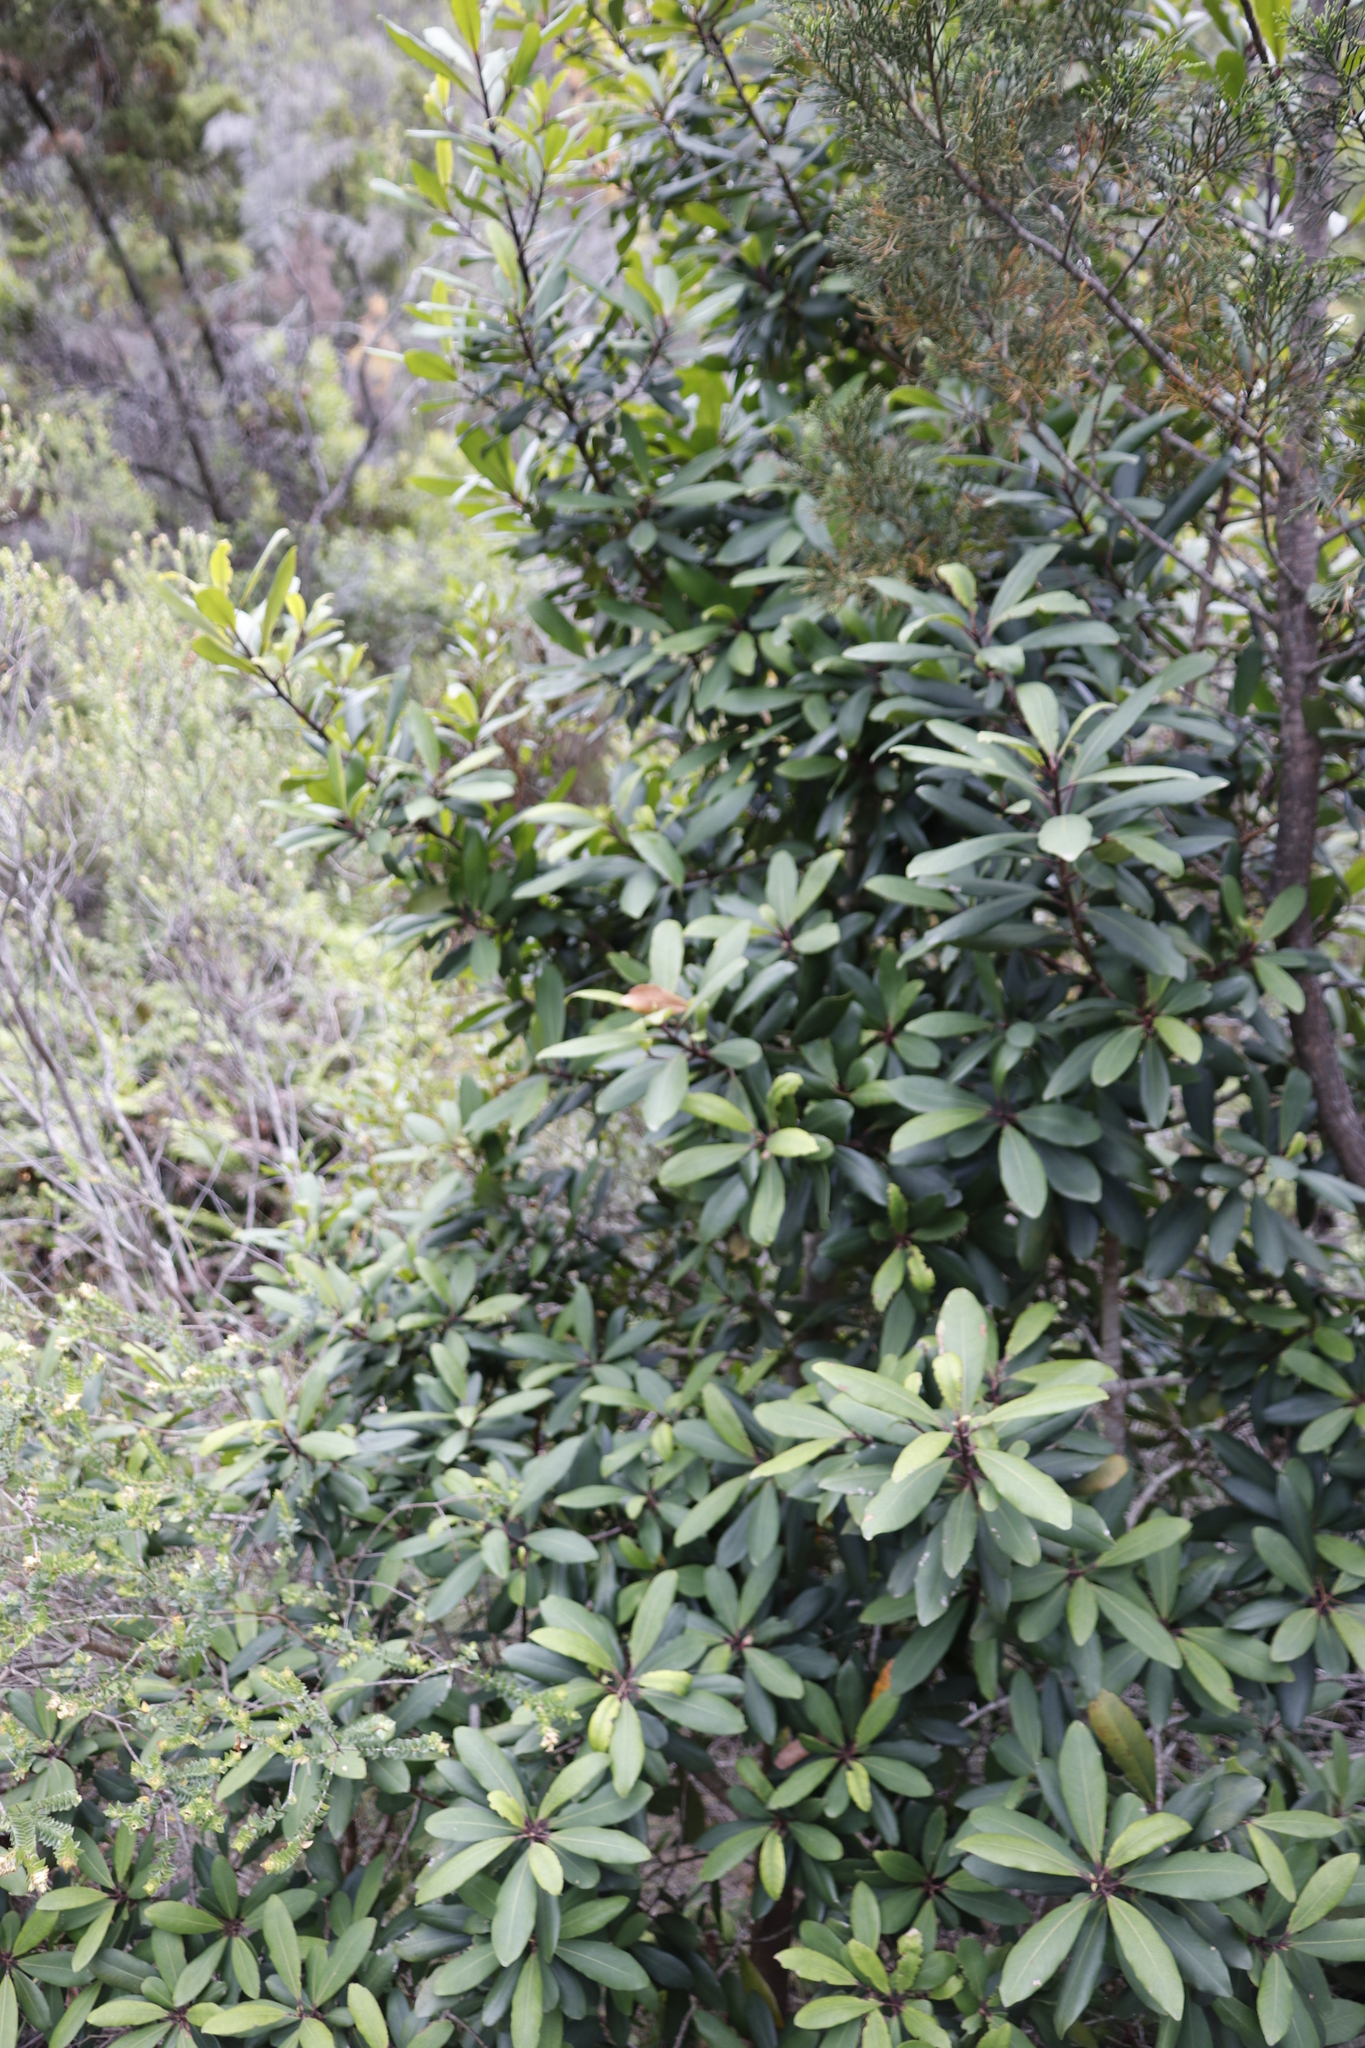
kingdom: Plantae
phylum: Tracheophyta
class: Magnoliopsida
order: Ericales
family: Primulaceae
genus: Myrsine
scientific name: Myrsine melanophloeos
